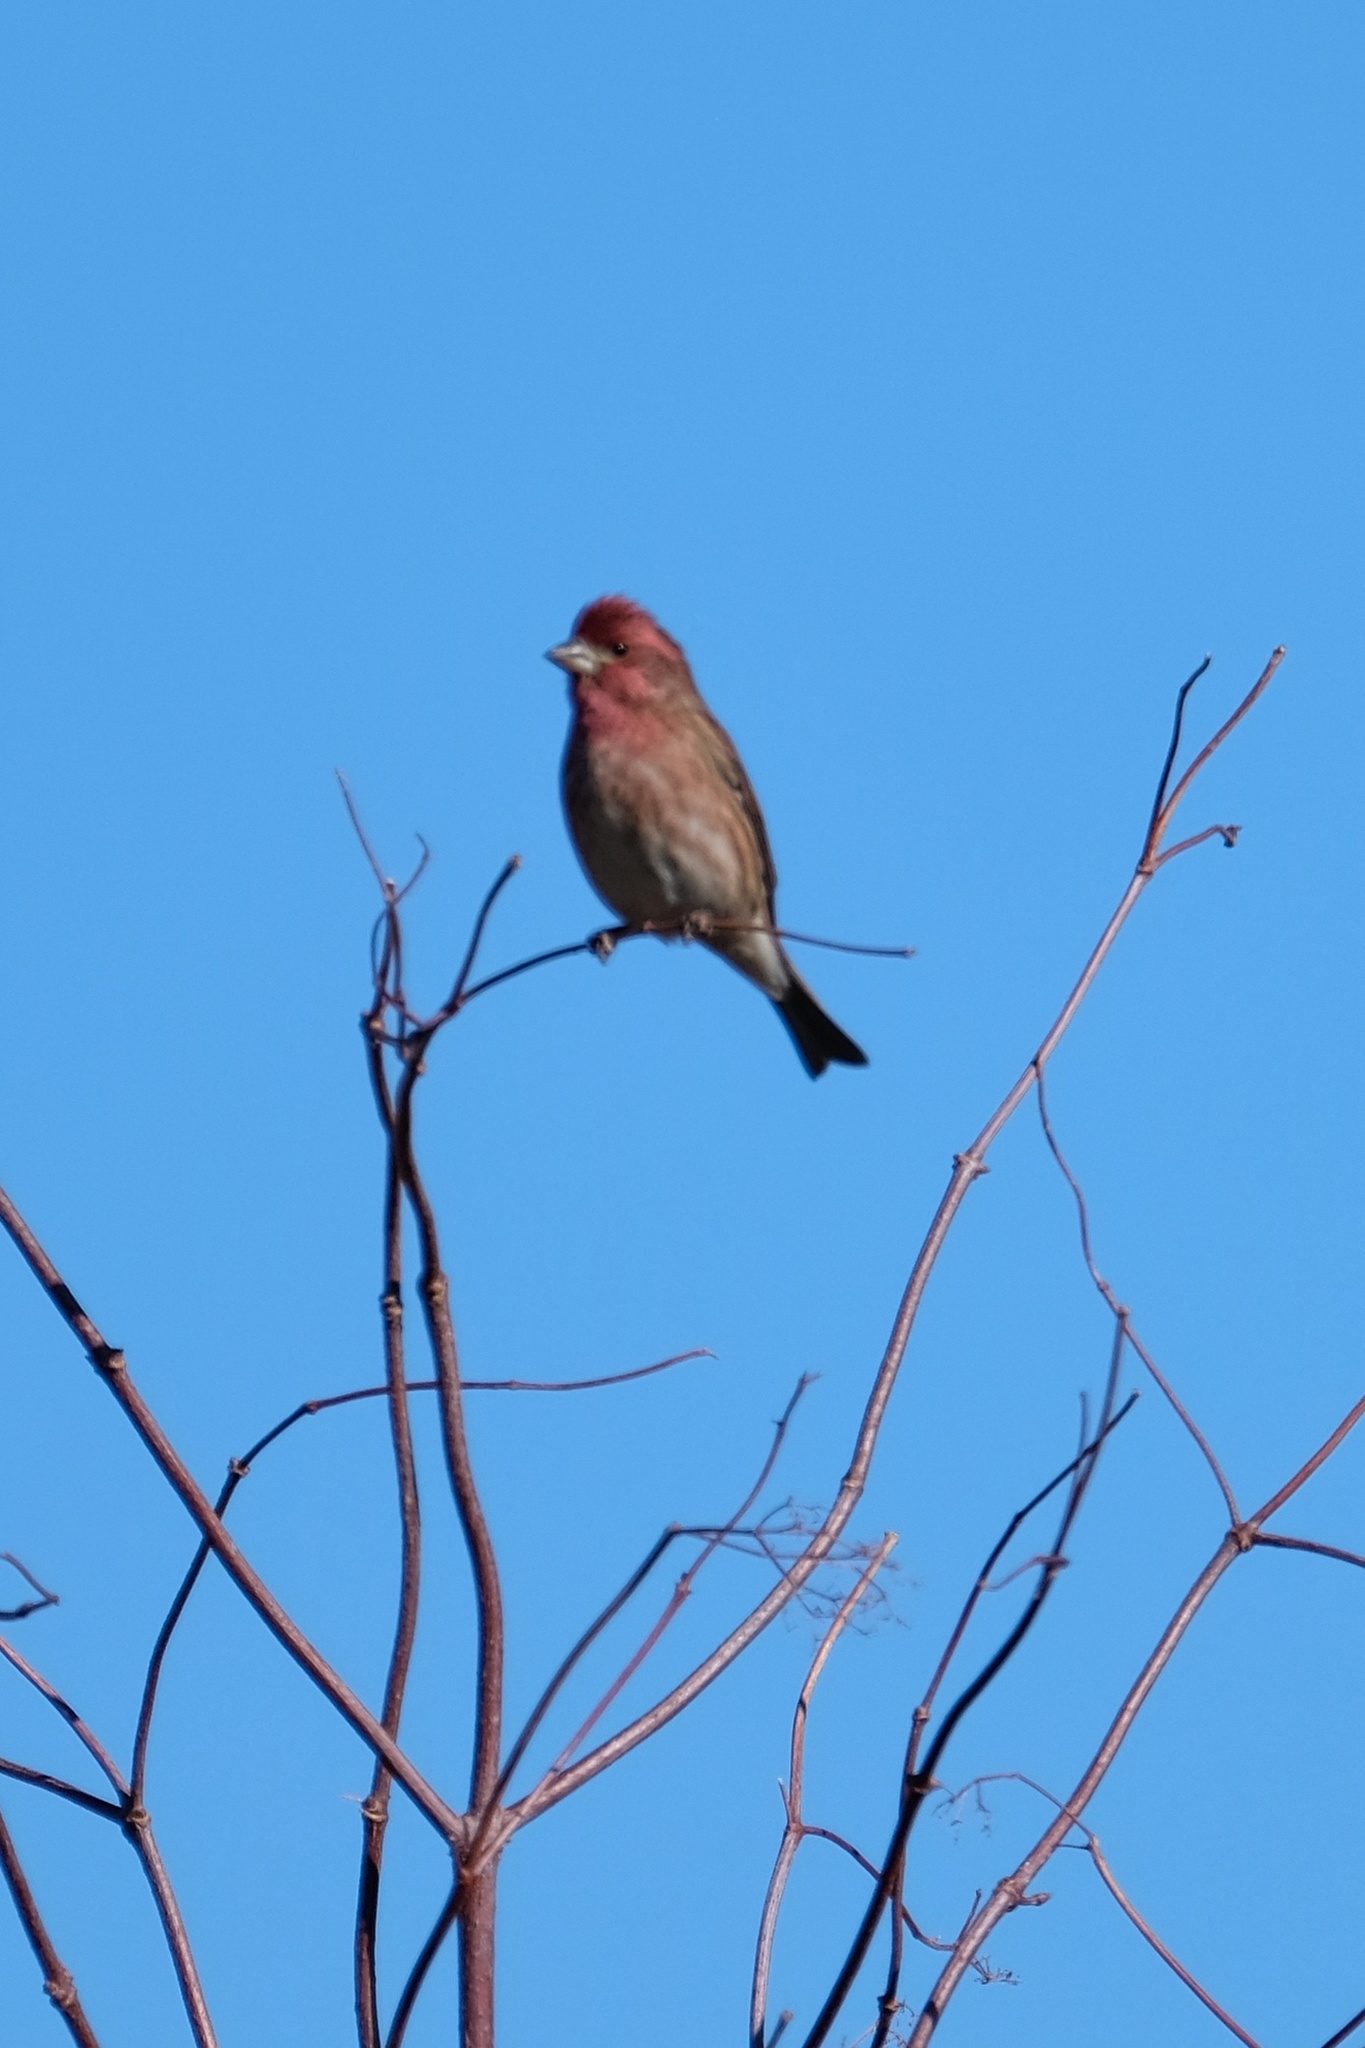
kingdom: Animalia
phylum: Chordata
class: Aves
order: Passeriformes
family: Fringillidae
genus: Haemorhous
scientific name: Haemorhous purpureus
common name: Purple finch
